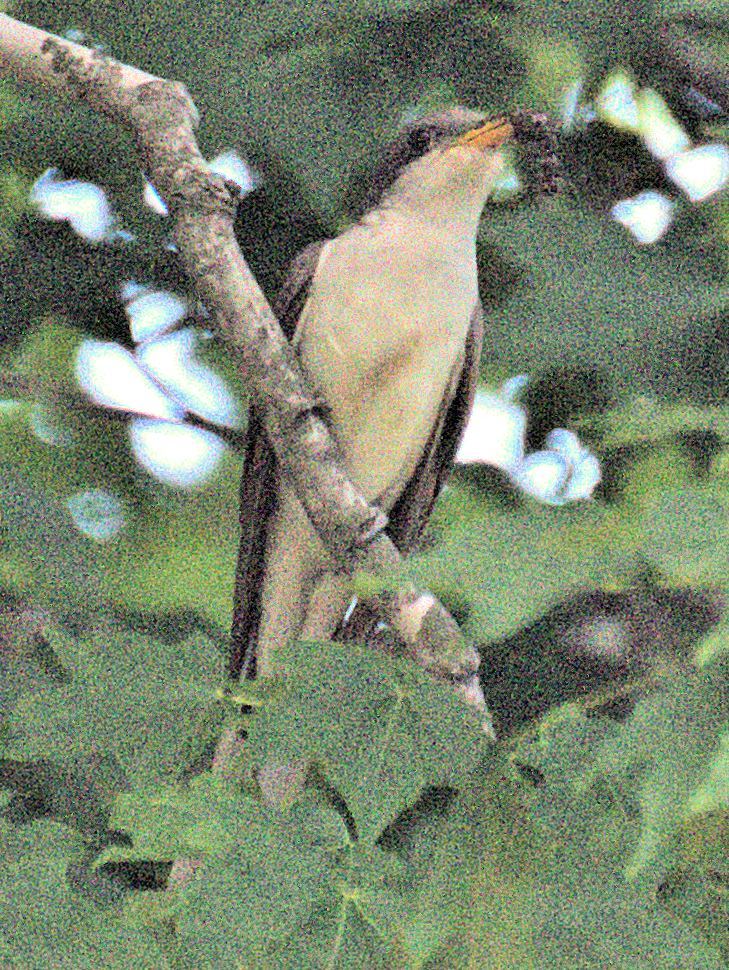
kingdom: Animalia
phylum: Chordata
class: Aves
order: Cuculiformes
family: Cuculidae
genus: Coccyzus
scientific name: Coccyzus americanus
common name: Yellow-billed cuckoo
